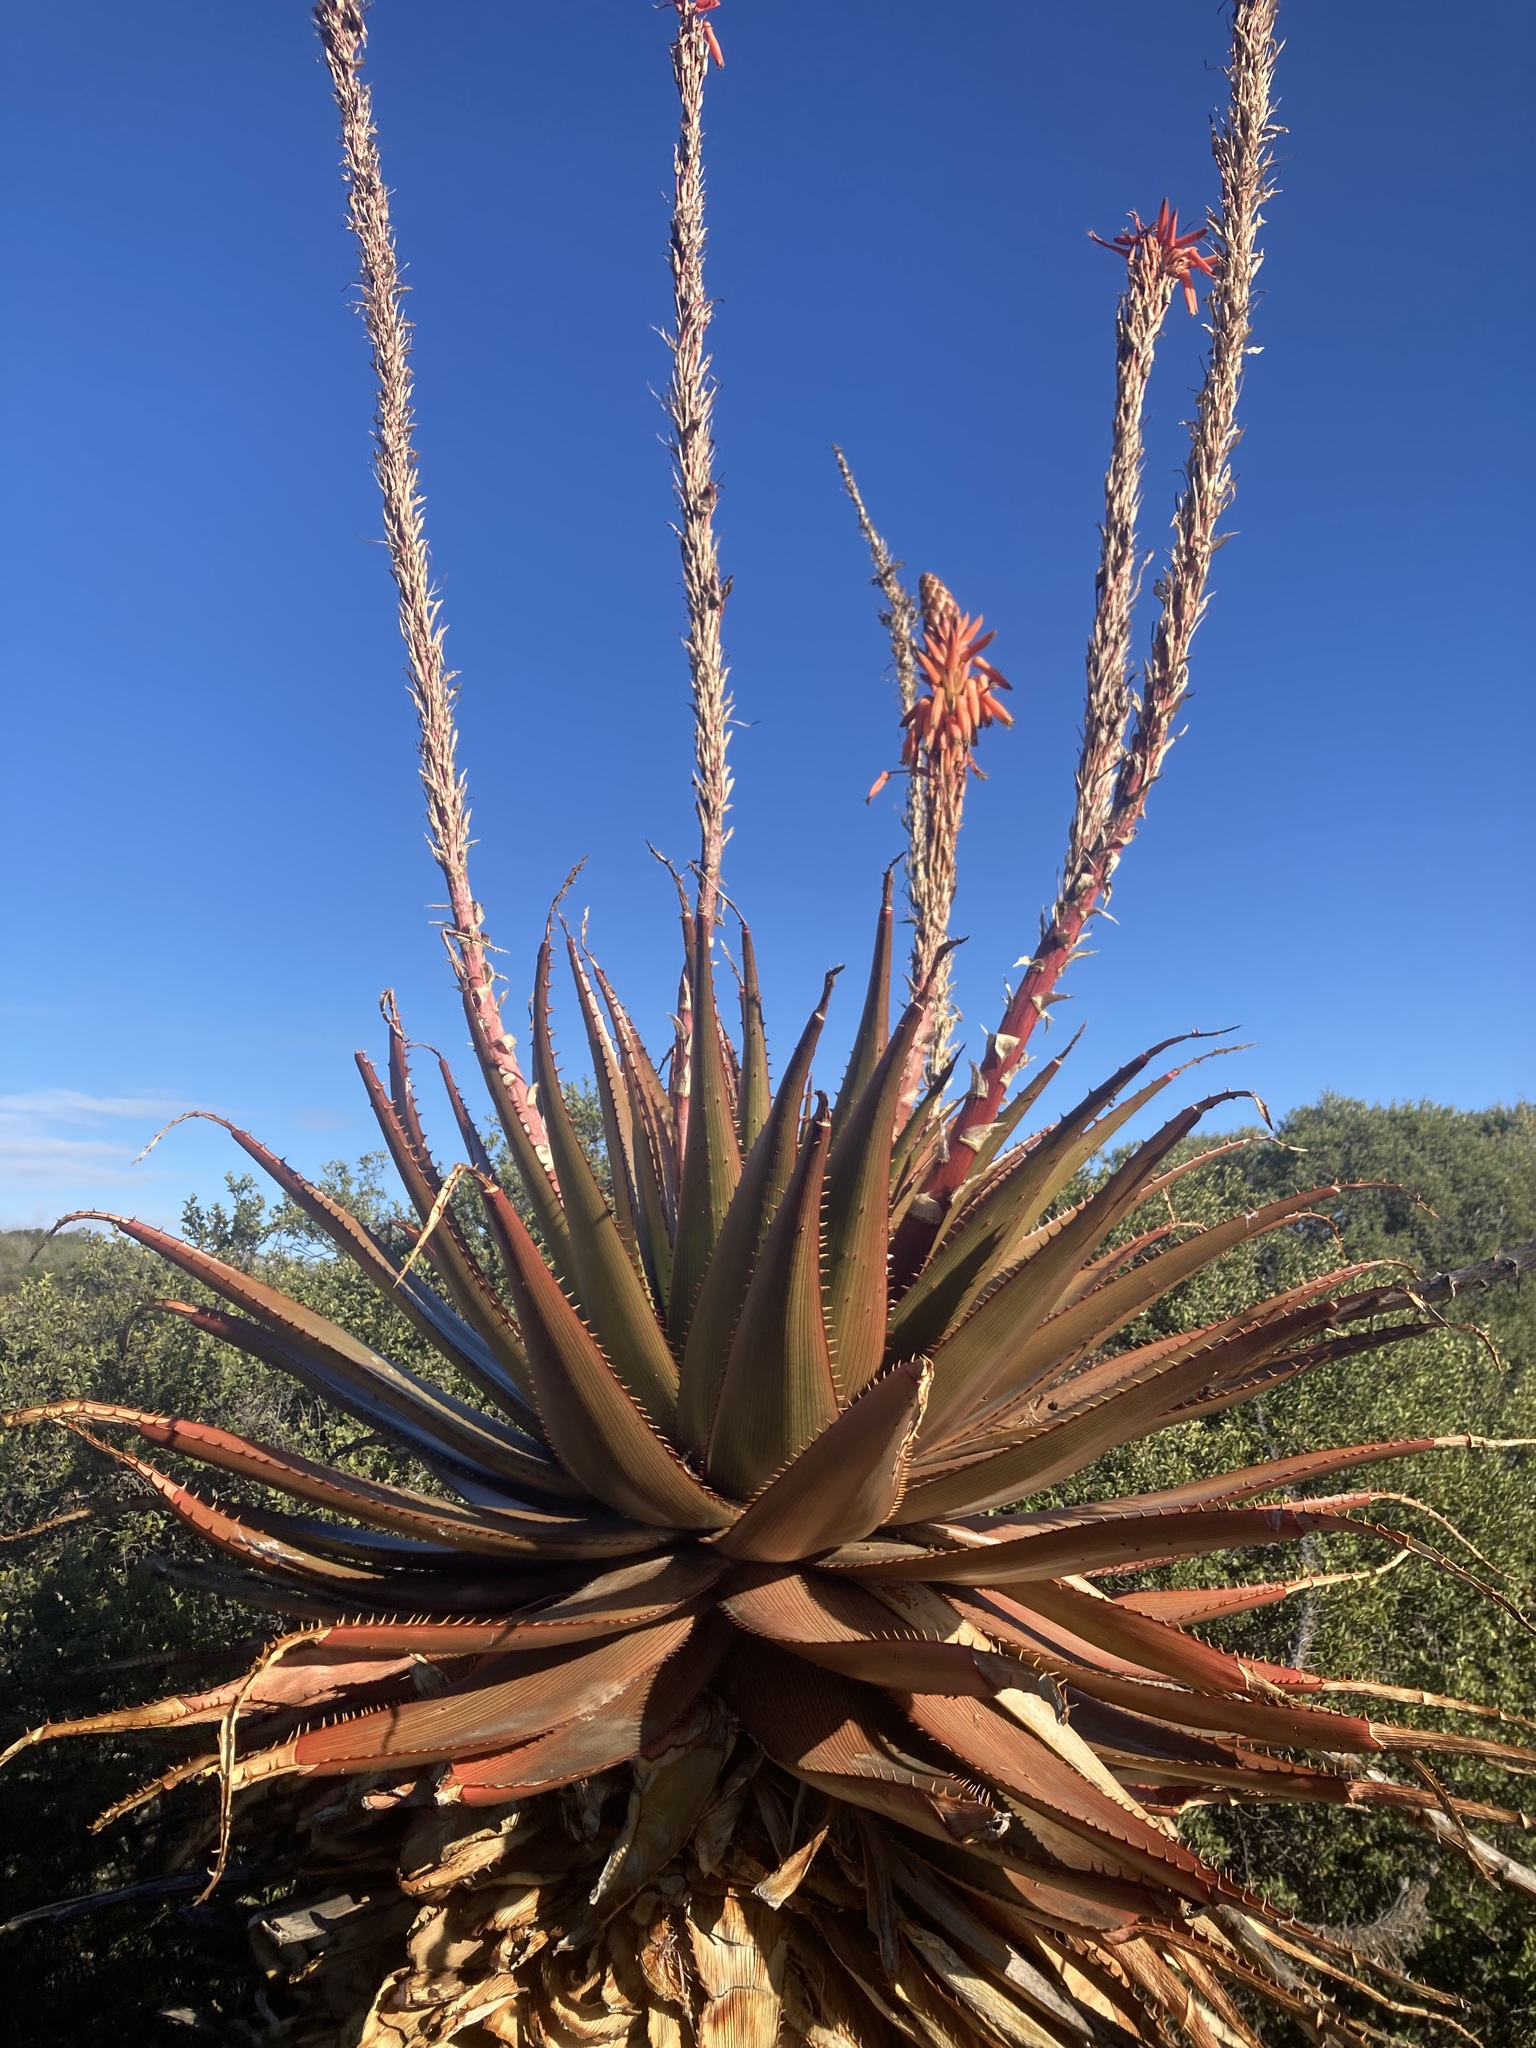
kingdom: Plantae
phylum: Tracheophyta
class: Liliopsida
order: Asparagales
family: Asphodelaceae
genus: Aloe
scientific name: Aloe lineata
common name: Lined red-spined aloe
